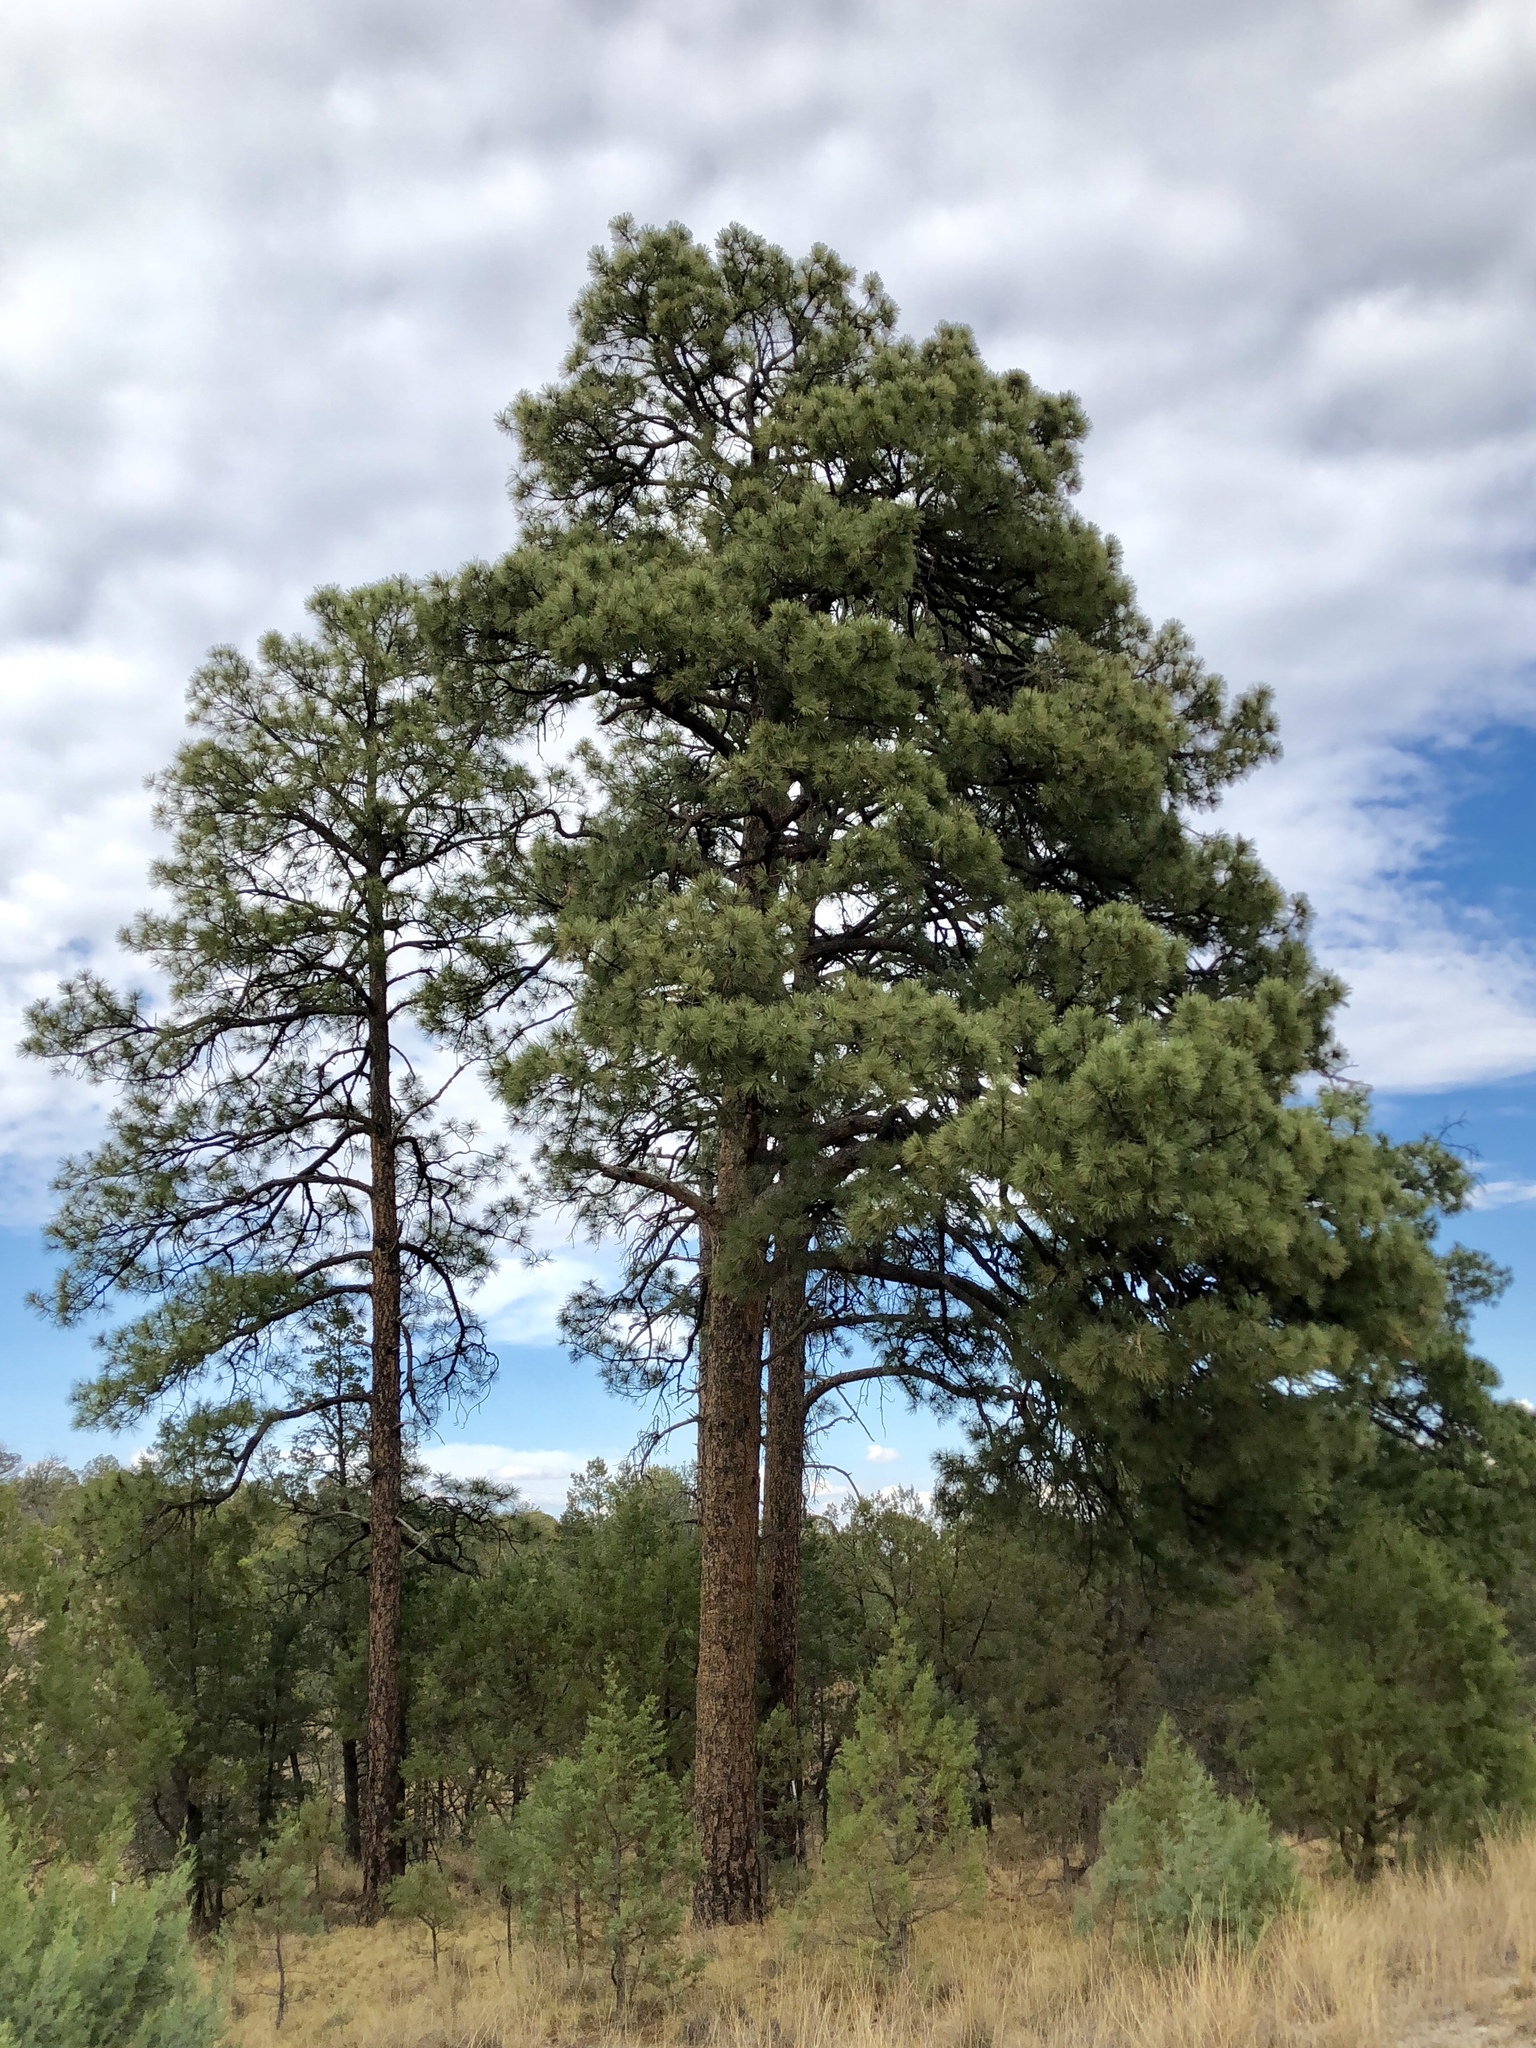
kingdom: Plantae
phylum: Tracheophyta
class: Pinopsida
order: Pinales
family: Pinaceae
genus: Pinus
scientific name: Pinus ponderosa
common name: Western yellow-pine
